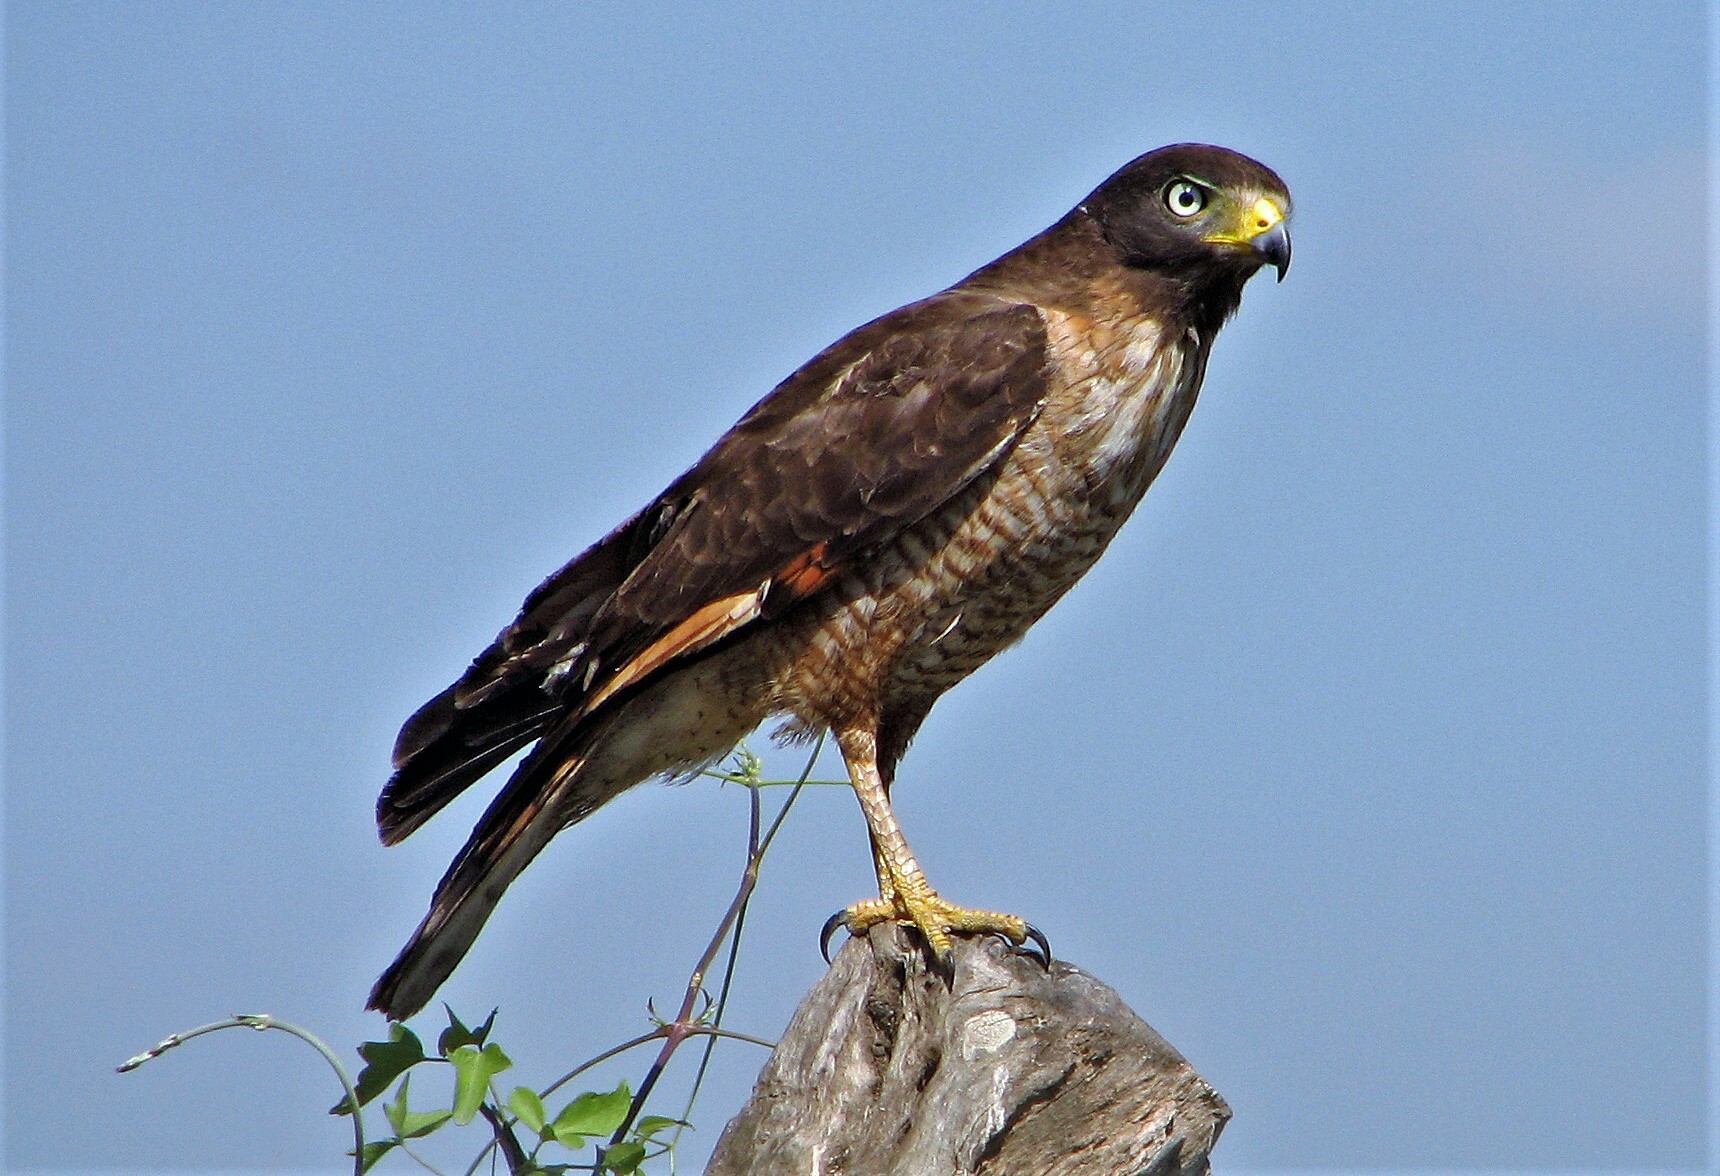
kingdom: Animalia
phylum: Chordata
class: Aves
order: Accipitriformes
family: Accipitridae
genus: Rupornis
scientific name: Rupornis magnirostris
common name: Roadside hawk
